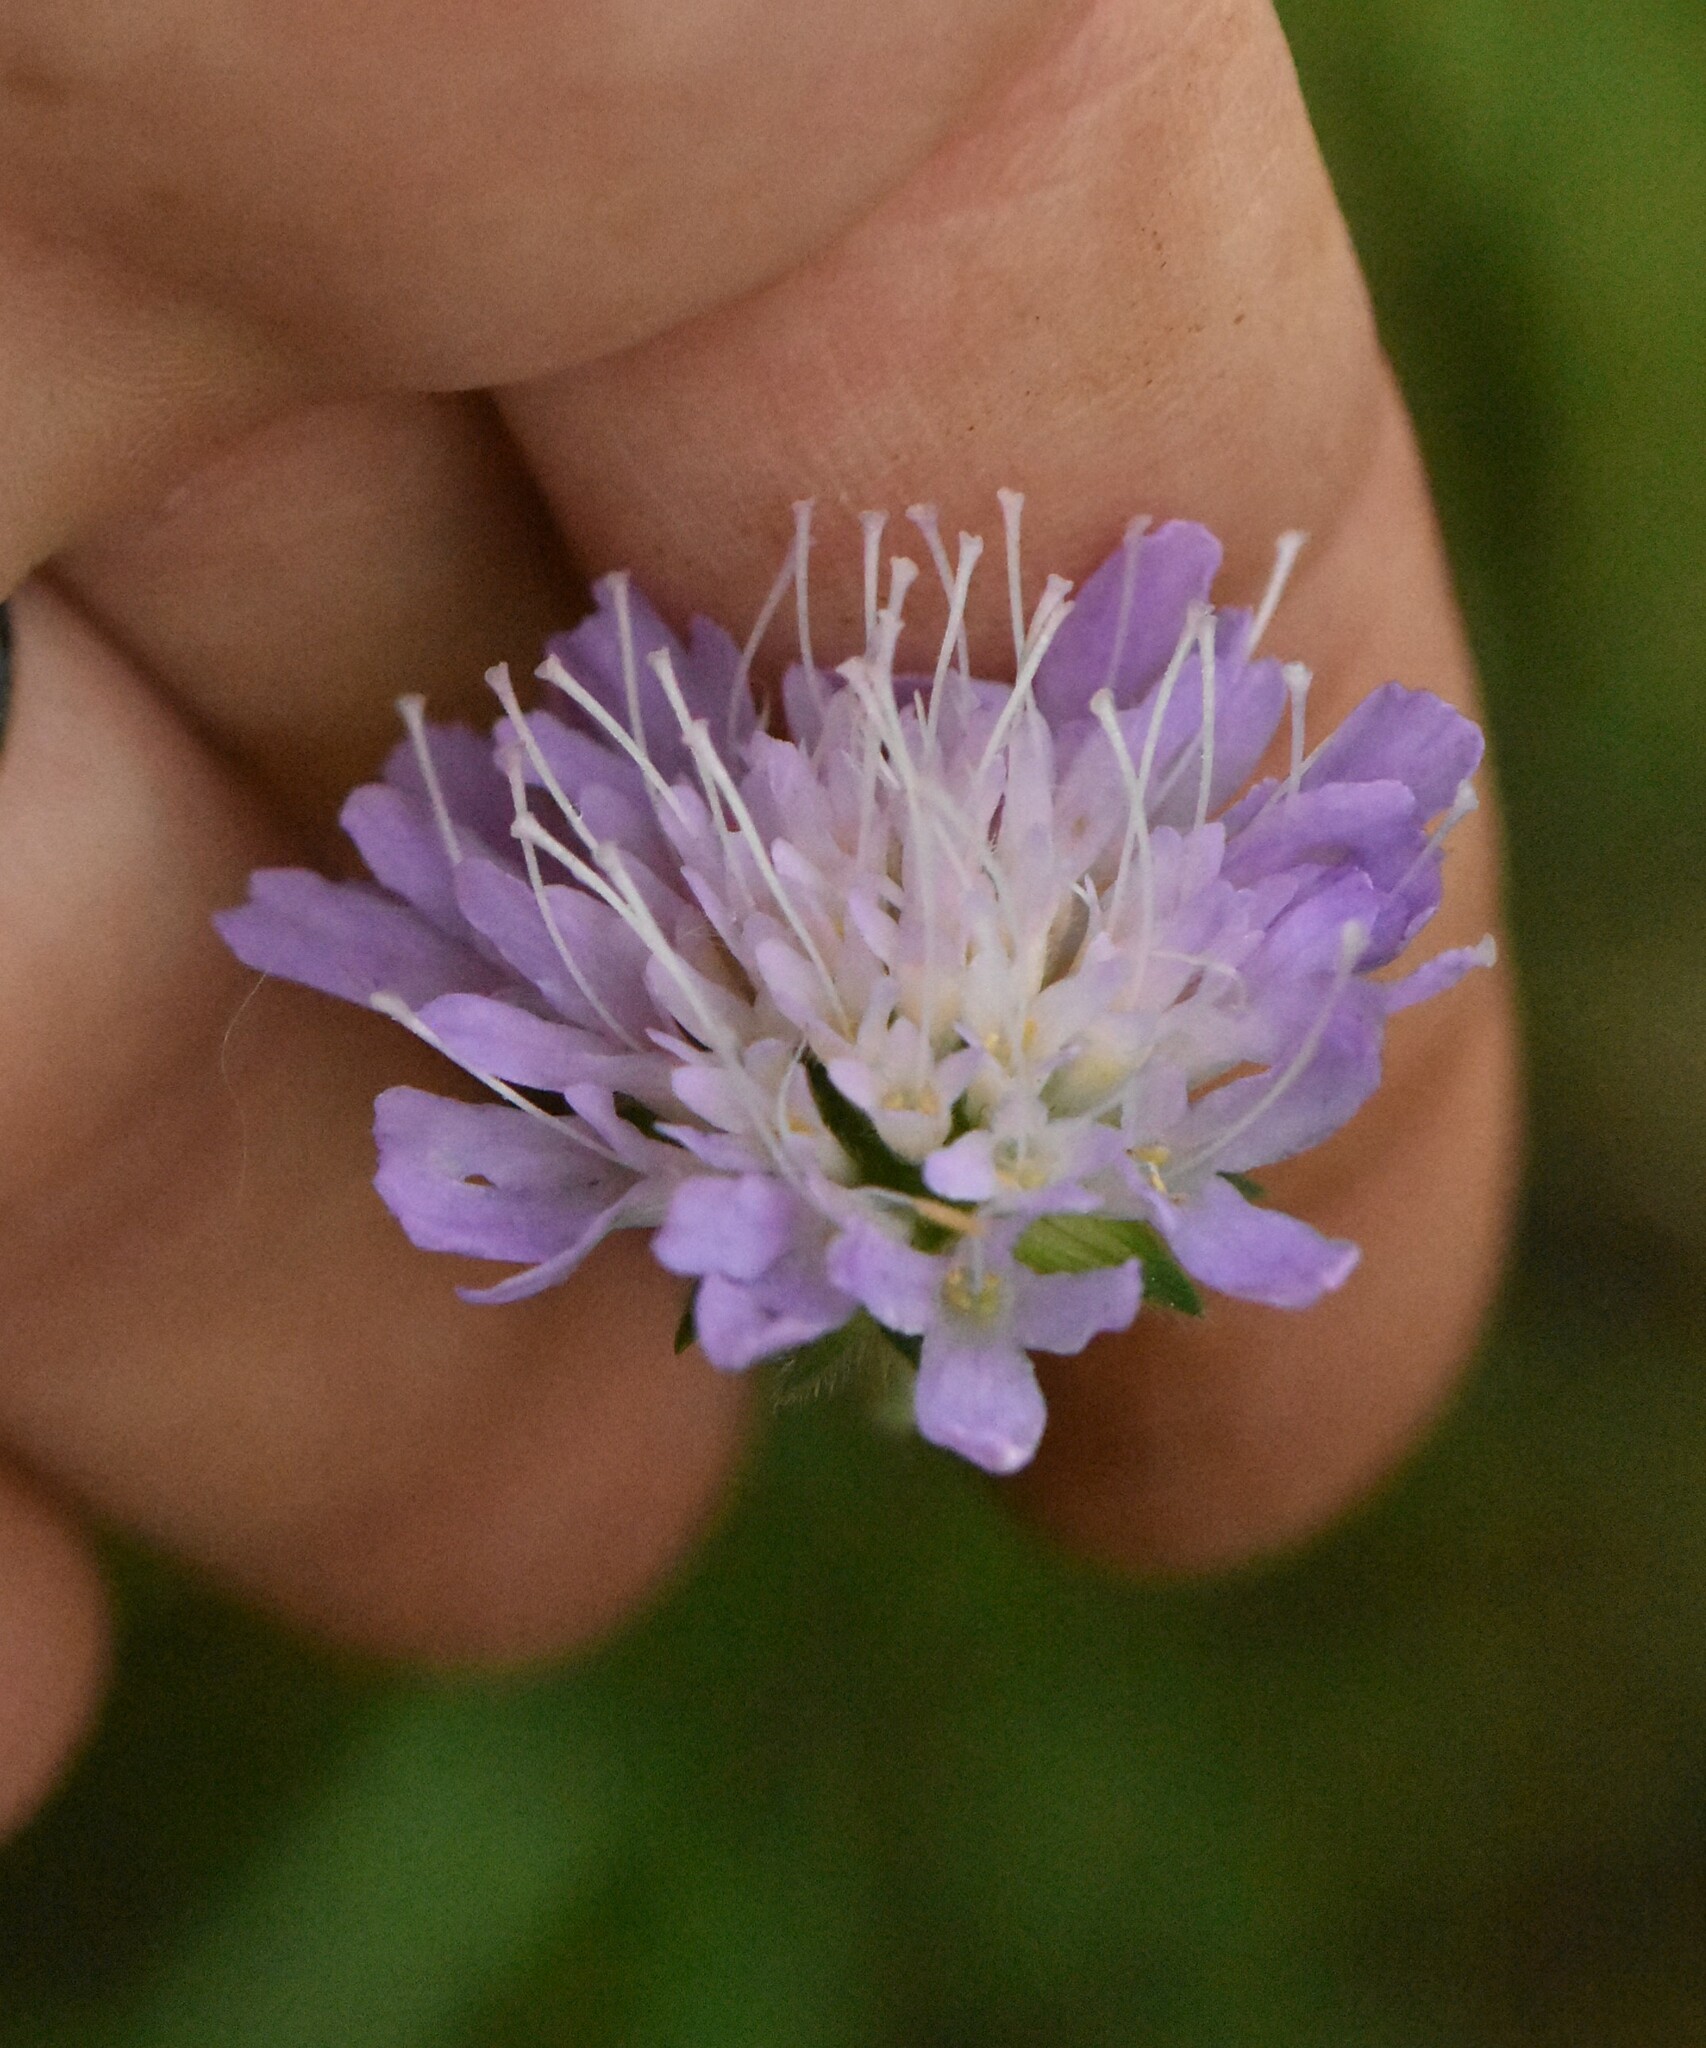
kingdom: Plantae
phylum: Tracheophyta
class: Magnoliopsida
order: Dipsacales
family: Caprifoliaceae
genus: Knautia
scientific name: Knautia arvensis
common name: Field scabiosa
